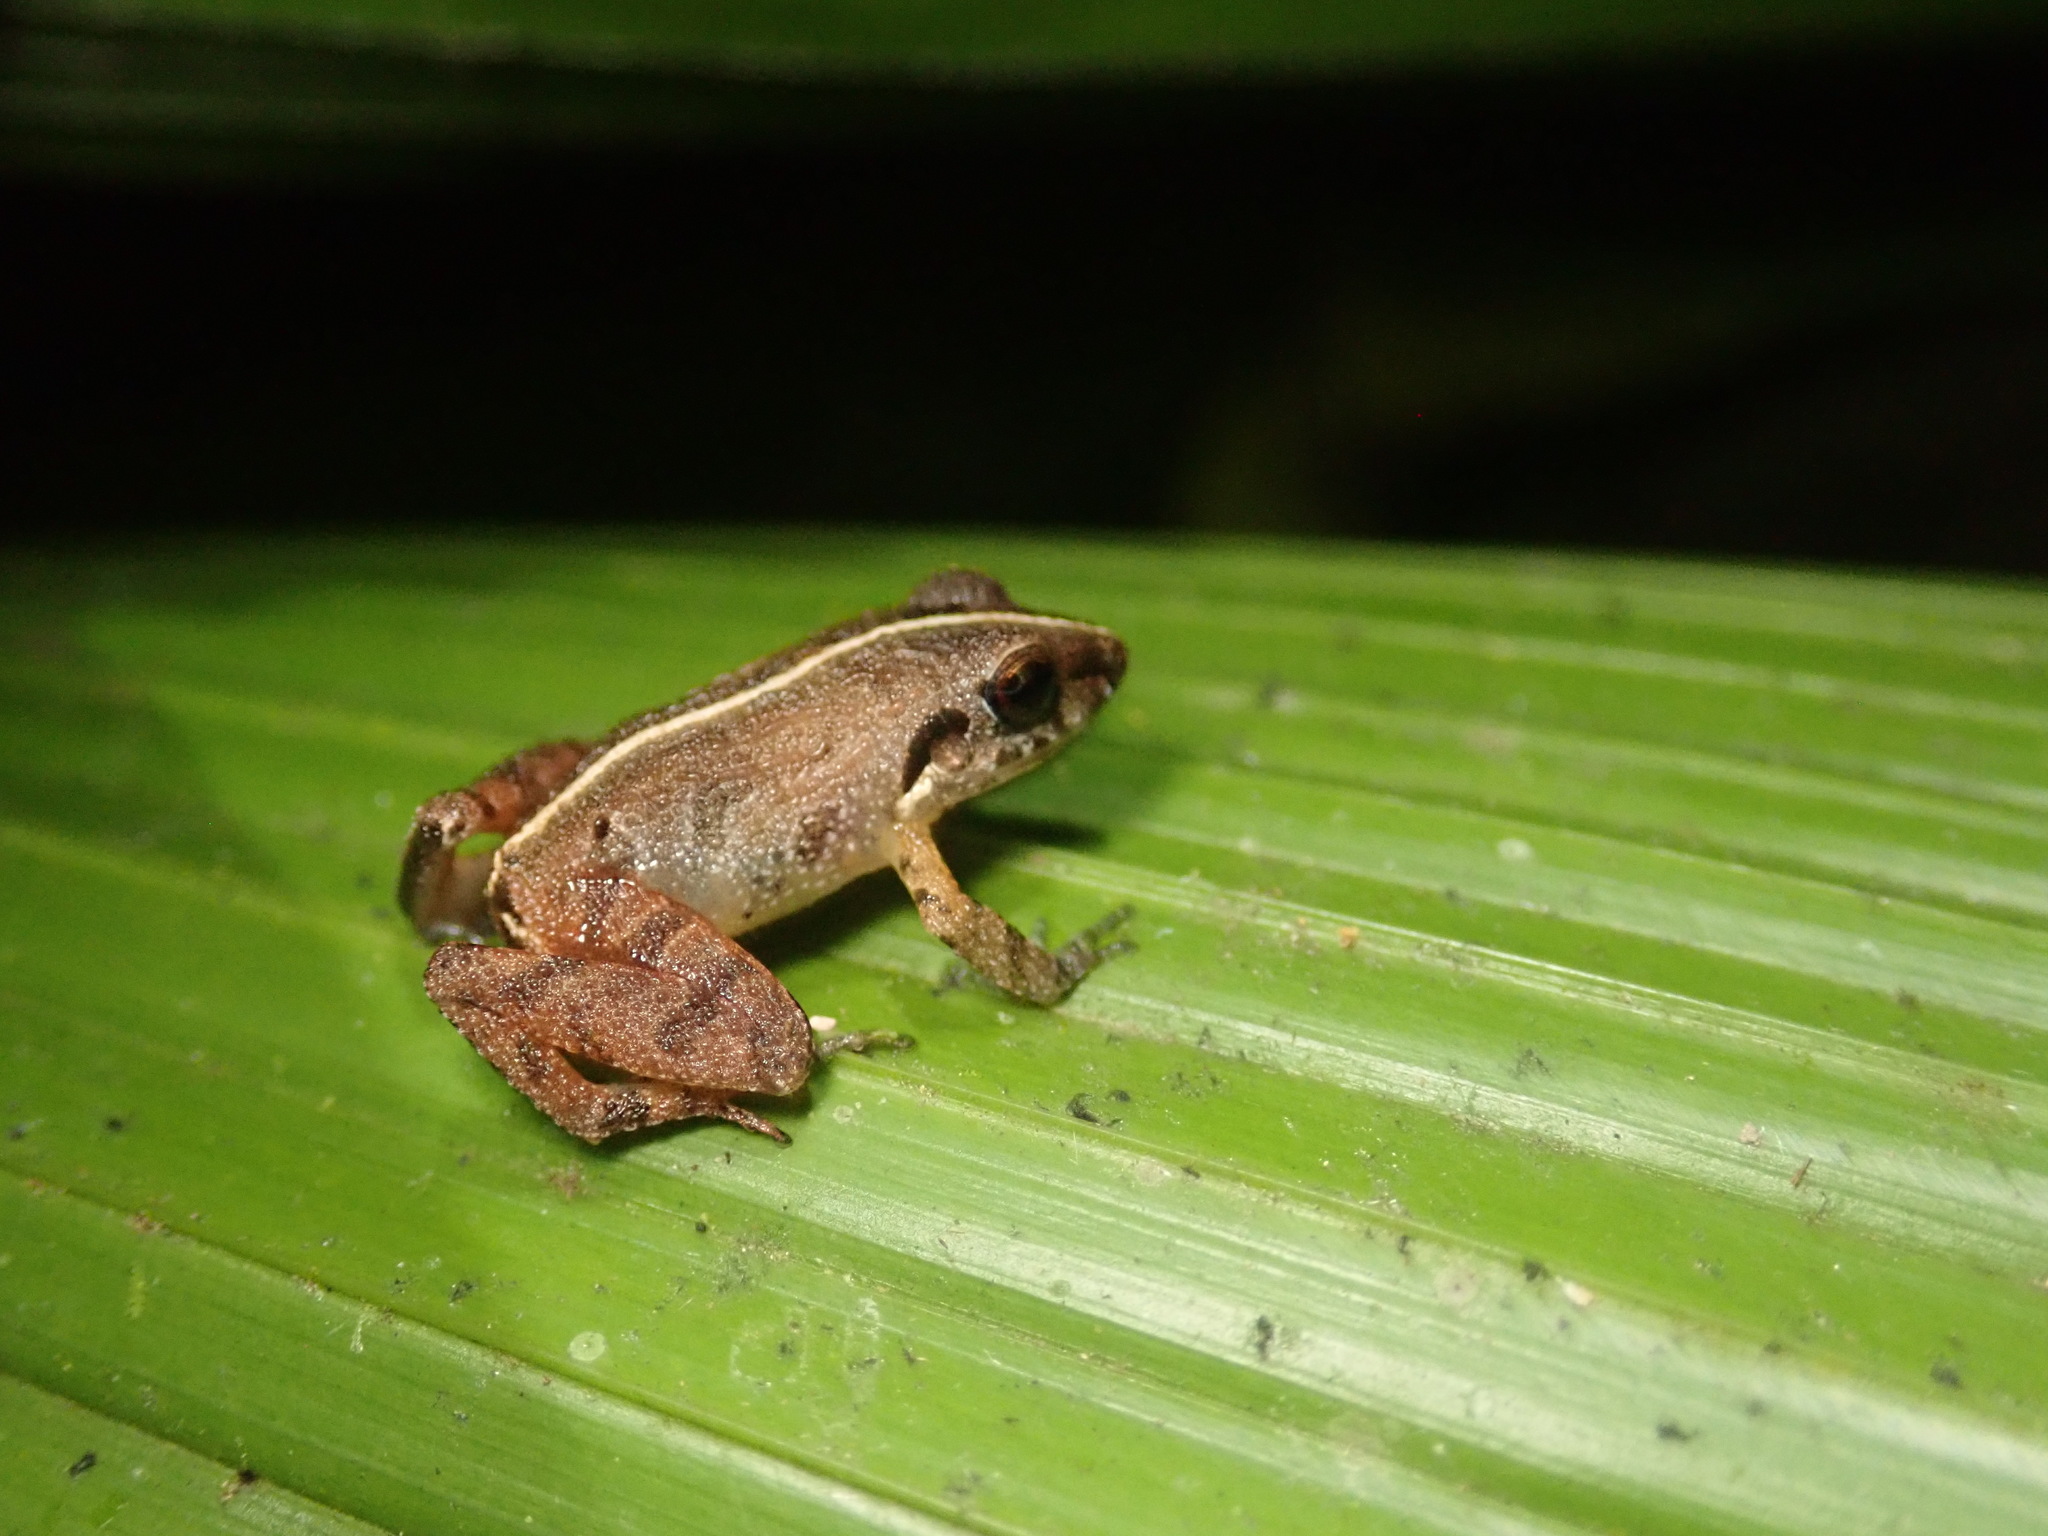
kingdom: Animalia
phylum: Chordata
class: Amphibia
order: Anura
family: Craugastoridae
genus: Craugastor
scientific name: Craugastor persimilis
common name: Similar flesh-bellied frog
